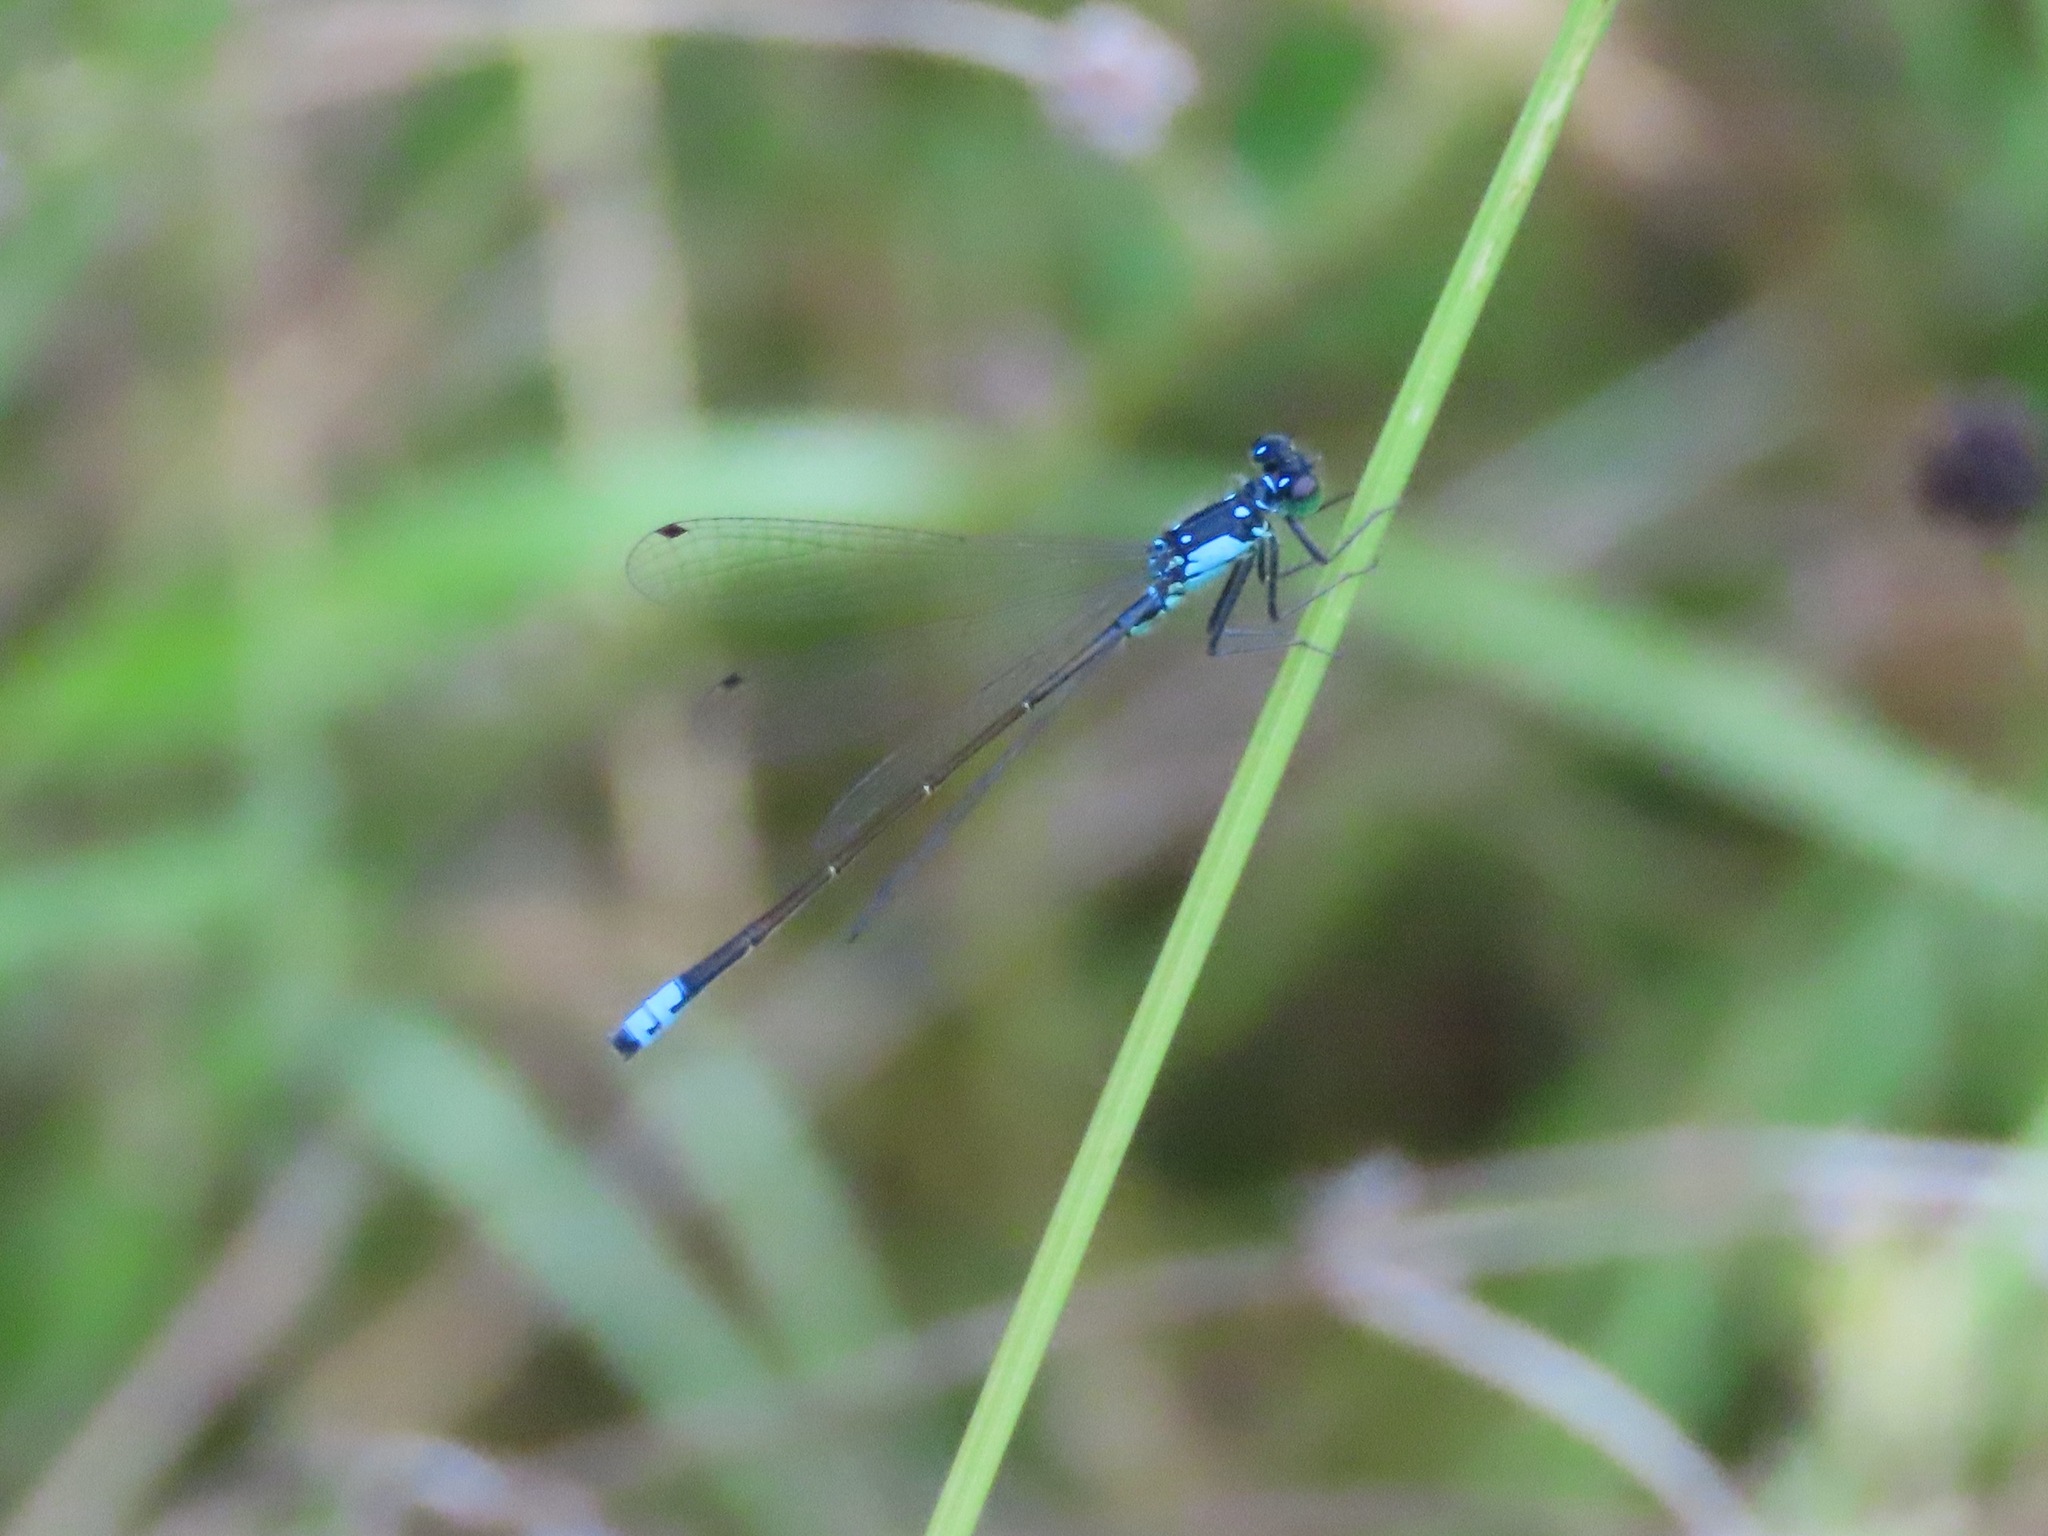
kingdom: Animalia
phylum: Arthropoda
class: Insecta
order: Odonata
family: Coenagrionidae
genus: Ischnura
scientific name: Ischnura cervula
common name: Pacific forktail
